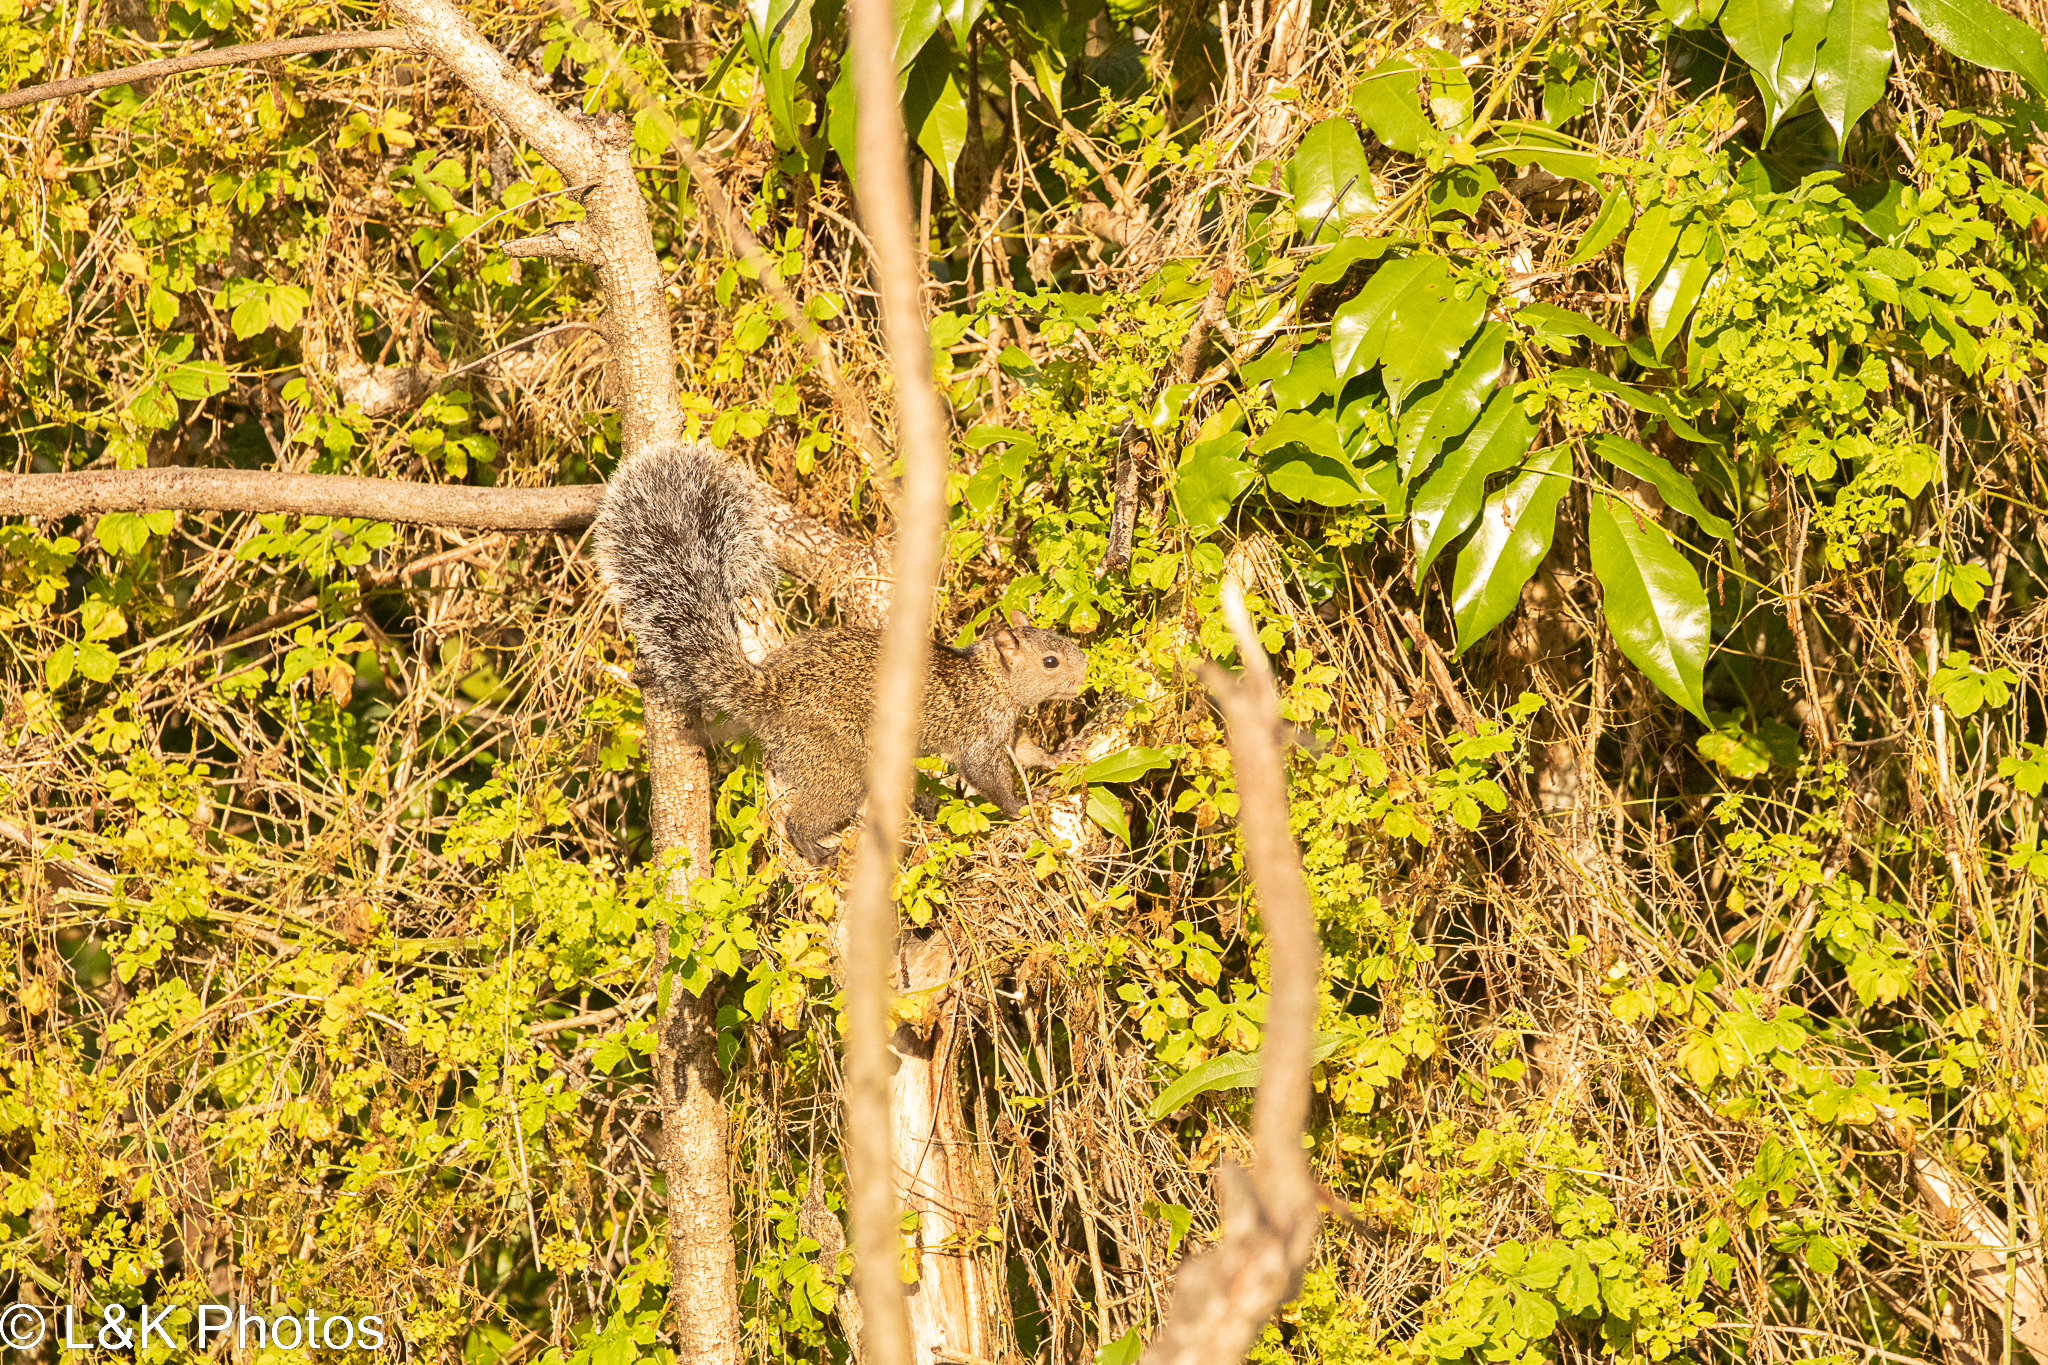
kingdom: Animalia
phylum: Chordata
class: Mammalia
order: Rodentia
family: Sciuridae
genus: Sciurus
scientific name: Sciurus yucatanensis
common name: Yucatan squirrel
